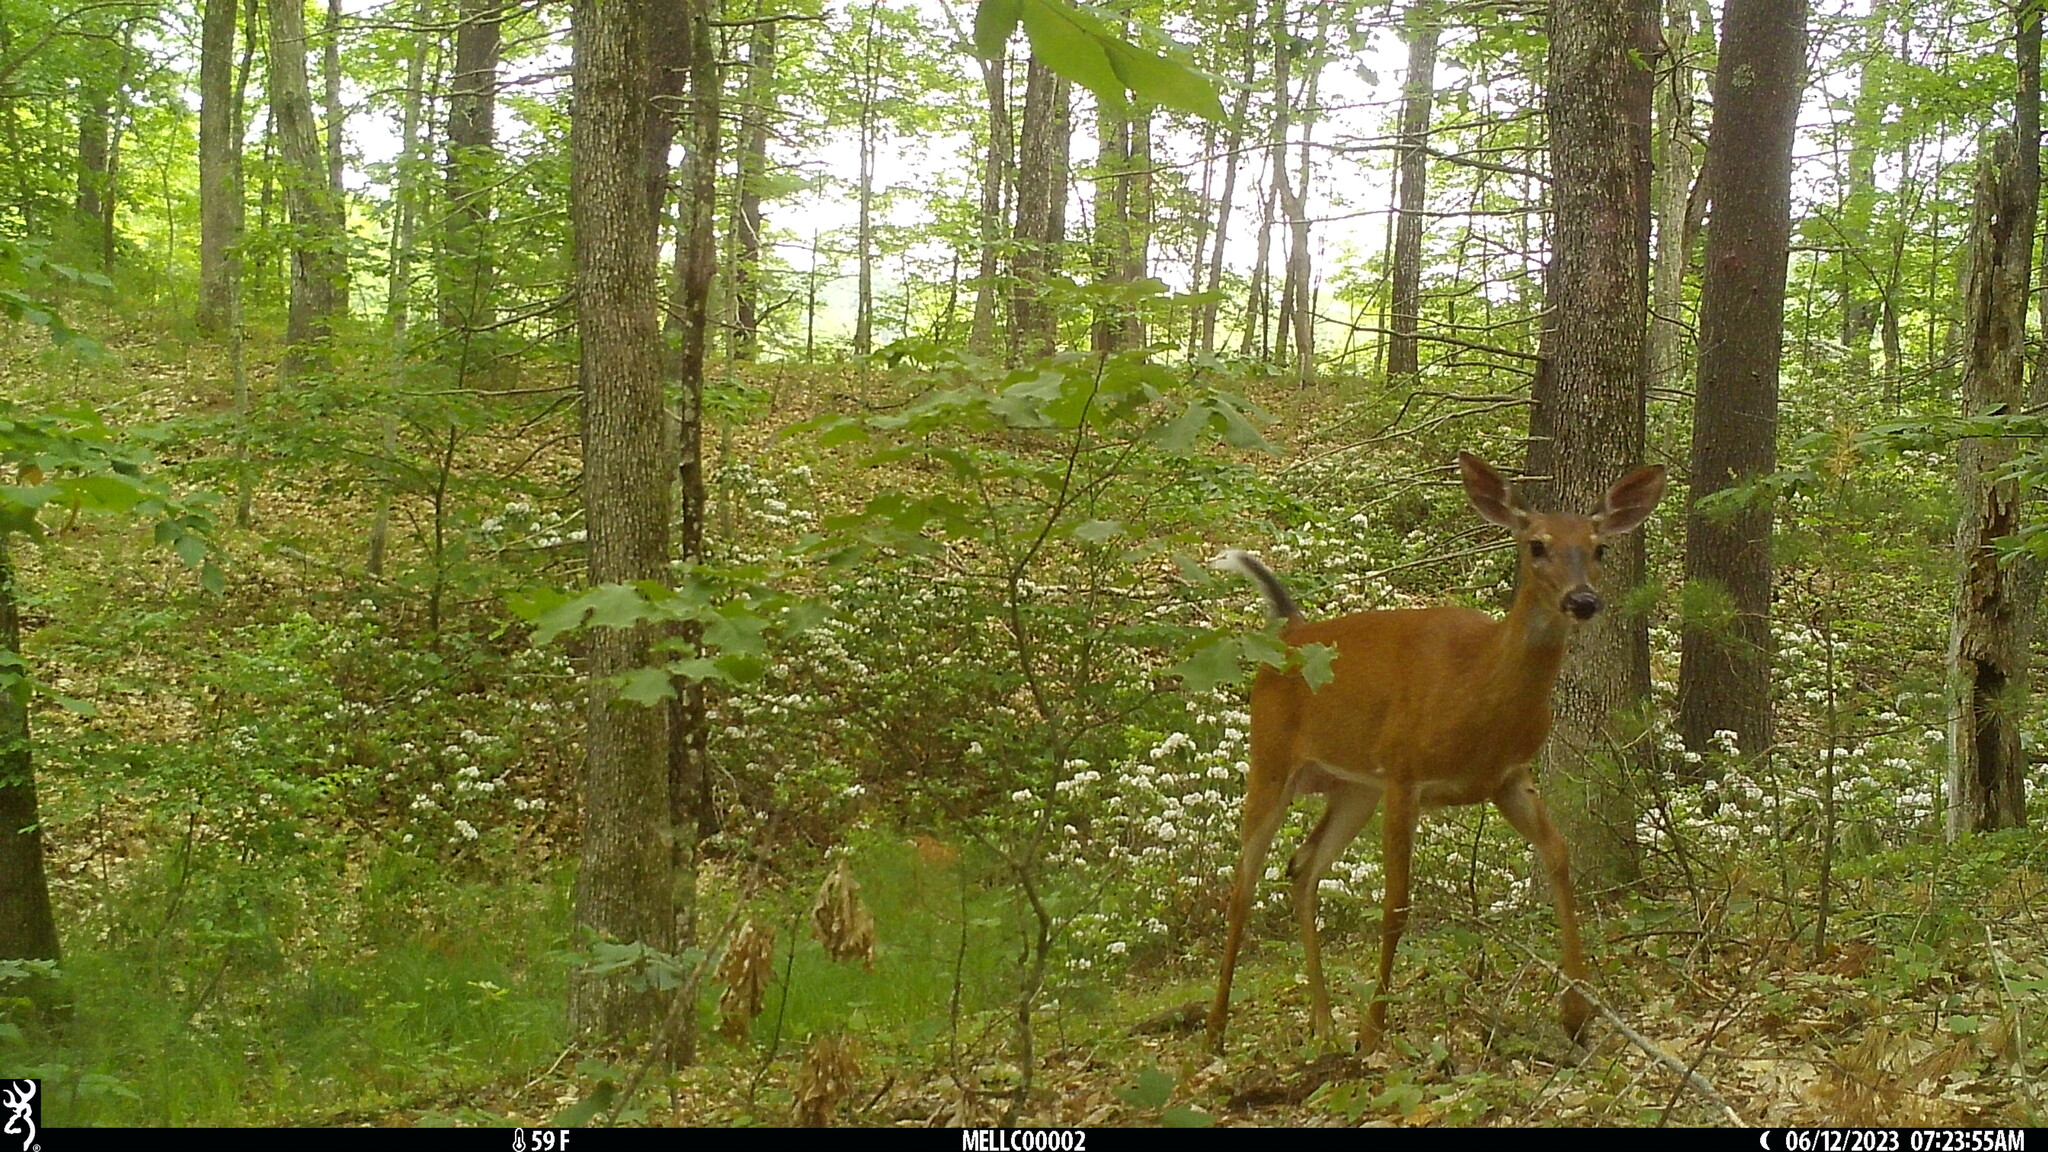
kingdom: Animalia
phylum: Chordata
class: Mammalia
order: Artiodactyla
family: Cervidae
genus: Odocoileus
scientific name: Odocoileus virginianus
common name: White-tailed deer
